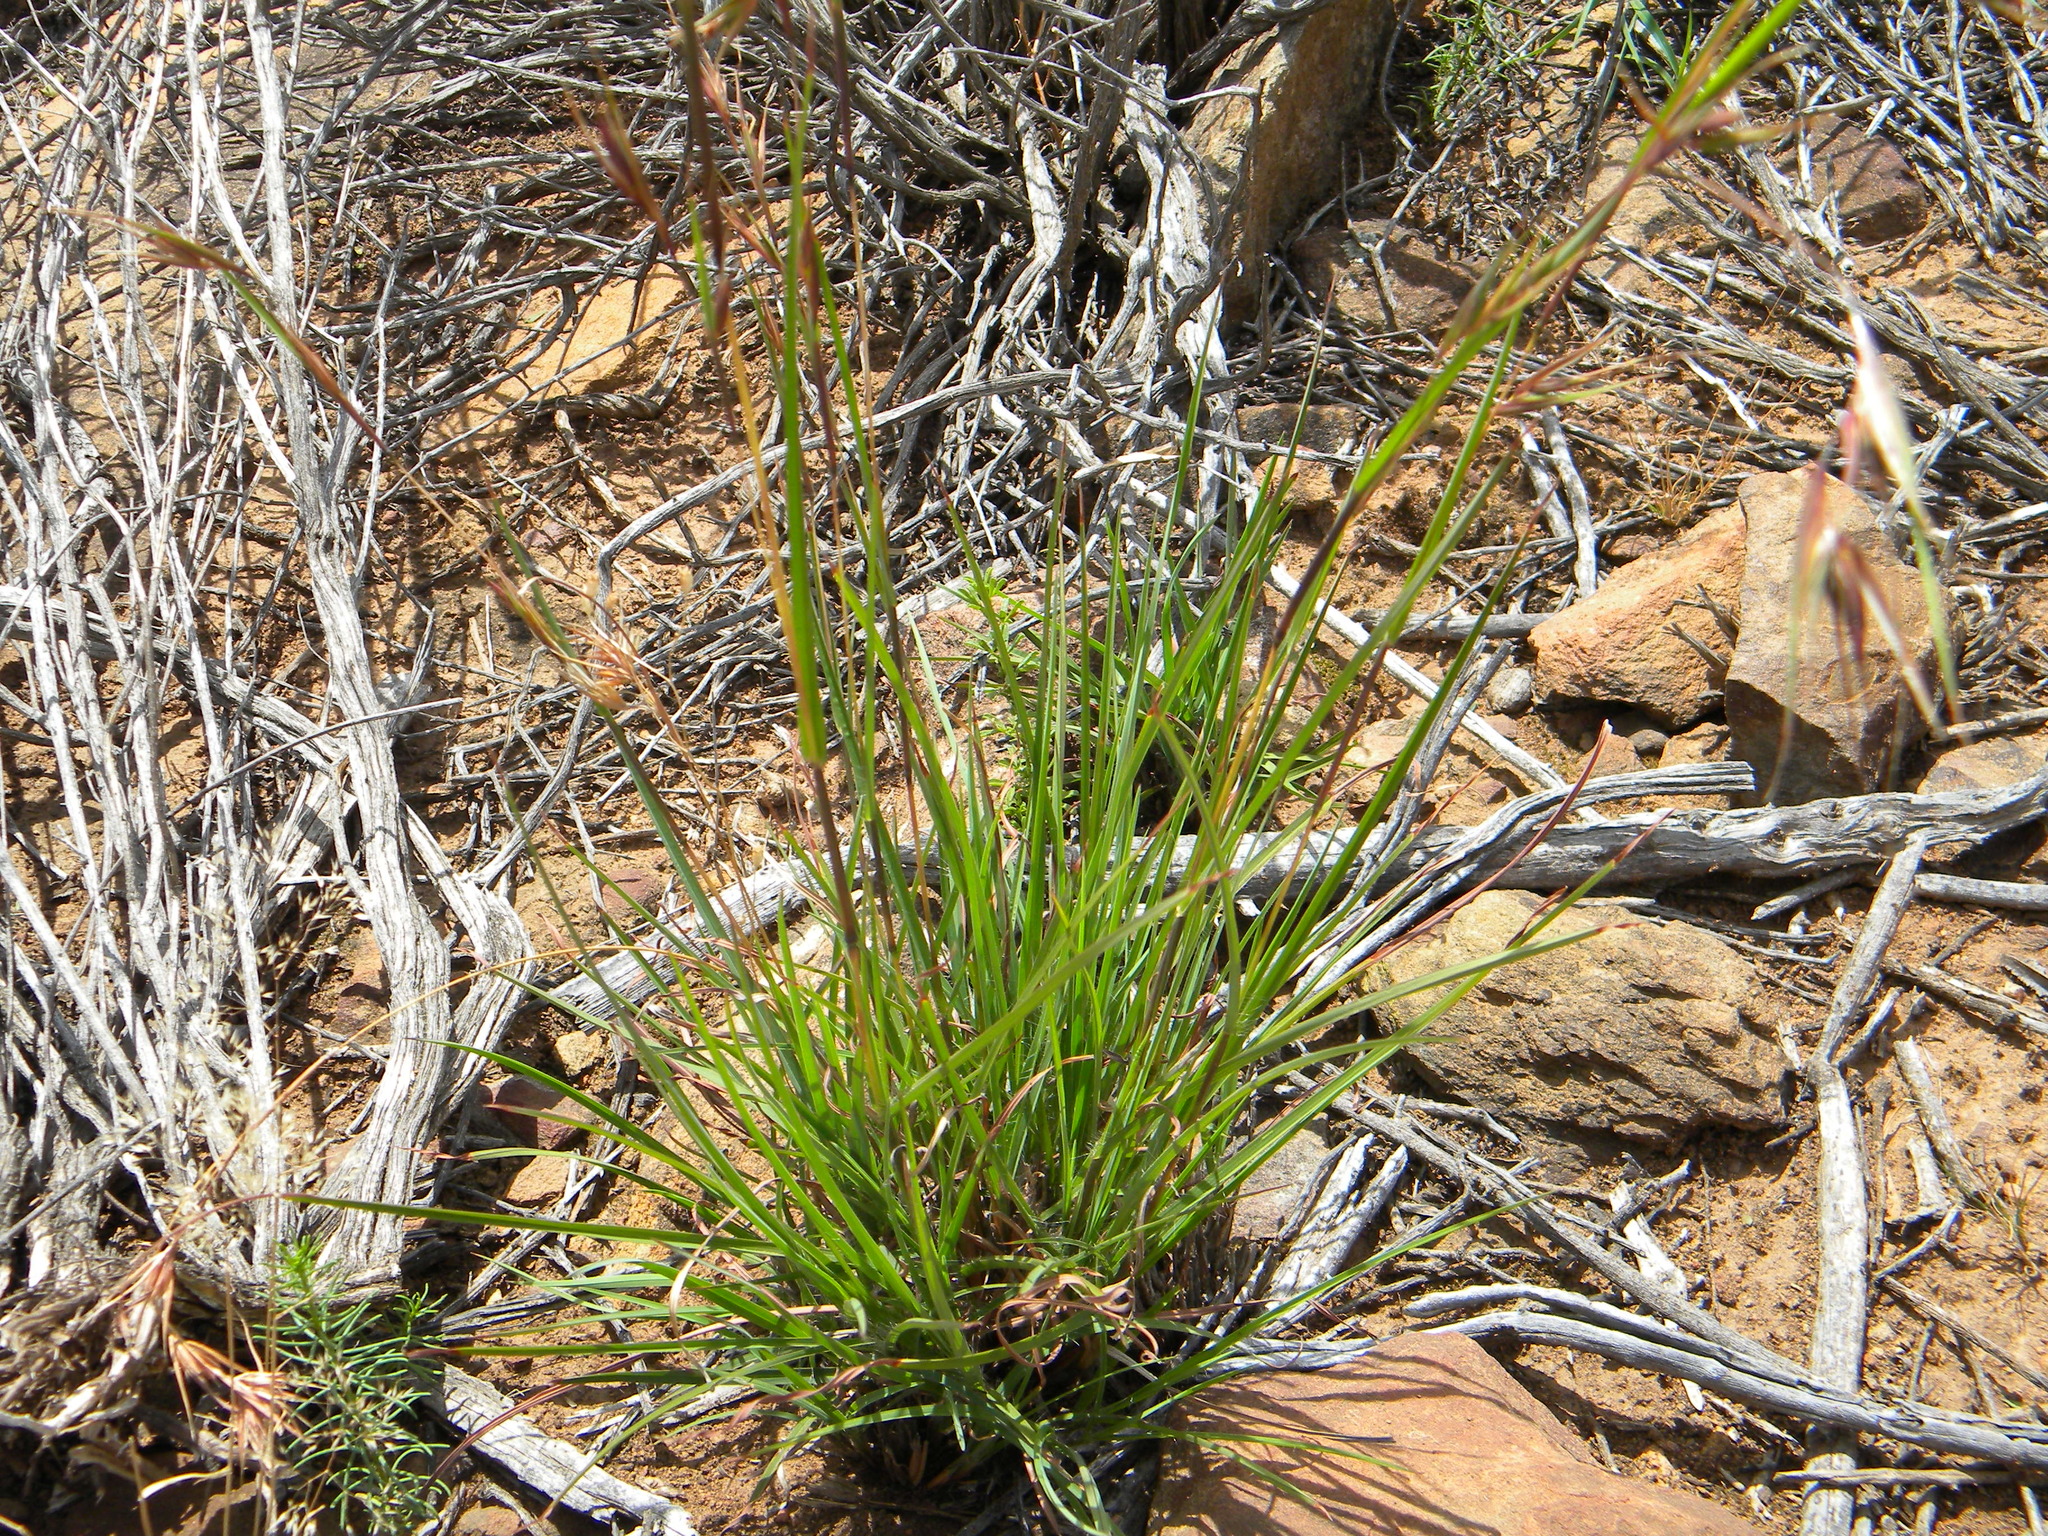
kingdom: Plantae
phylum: Tracheophyta
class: Liliopsida
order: Poales
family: Poaceae
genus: Themeda
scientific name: Themeda triandra
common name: Kangaroo grass
